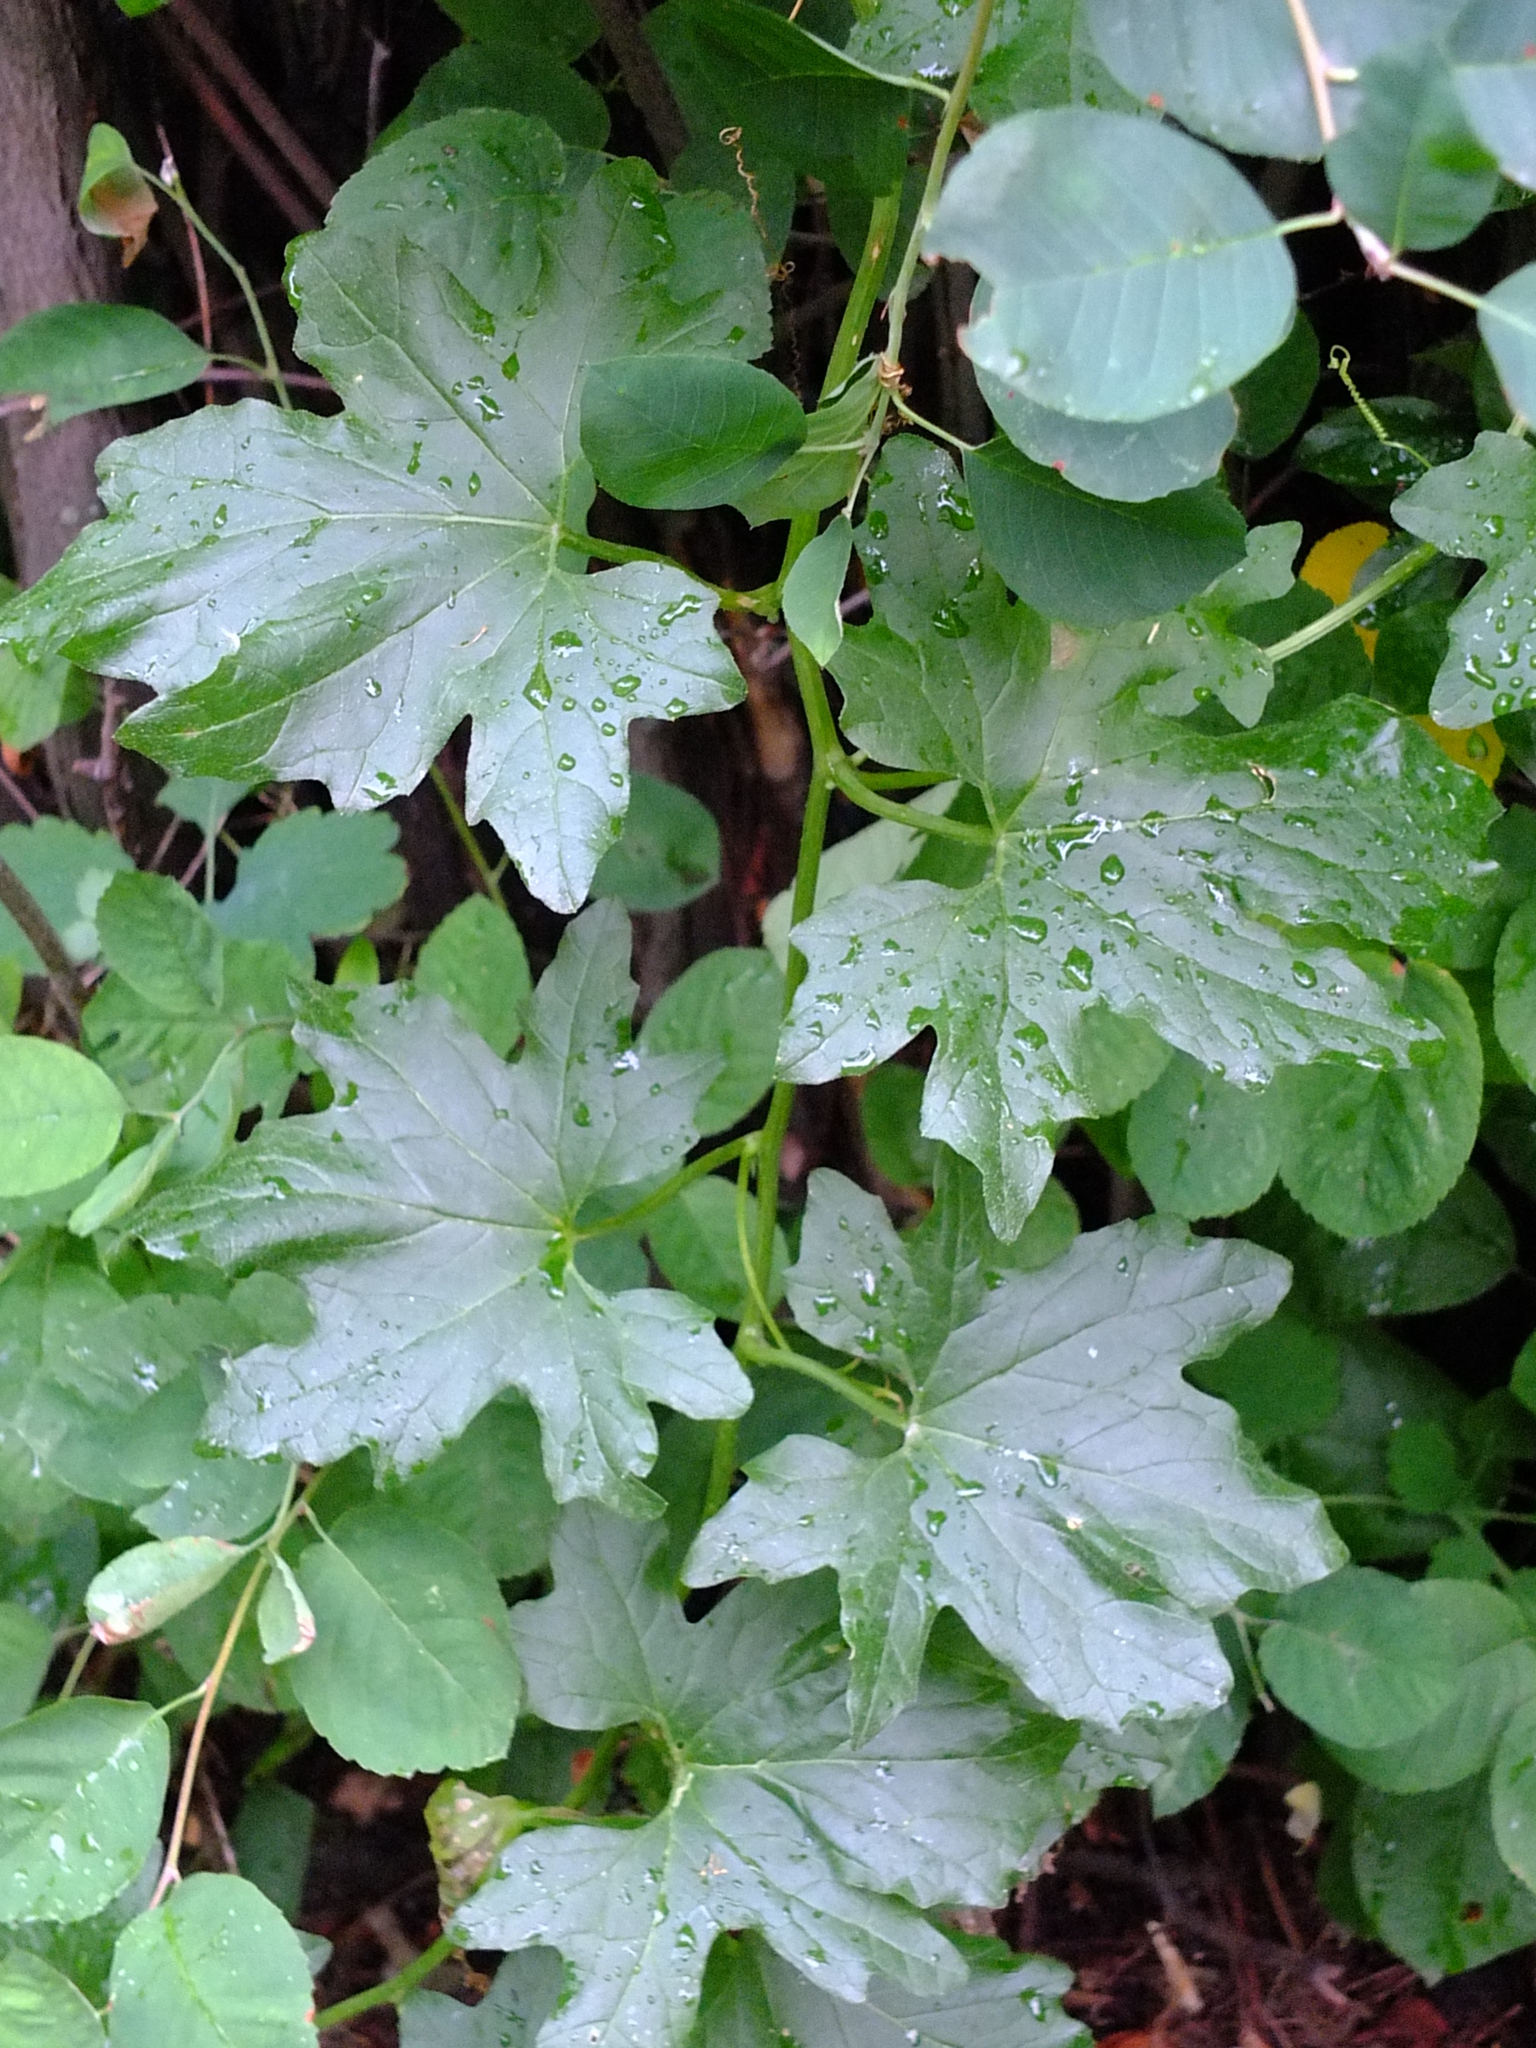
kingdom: Plantae
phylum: Tracheophyta
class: Magnoliopsida
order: Cucurbitales
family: Cucurbitaceae
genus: Bryonia
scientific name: Bryonia alba
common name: White bryony
